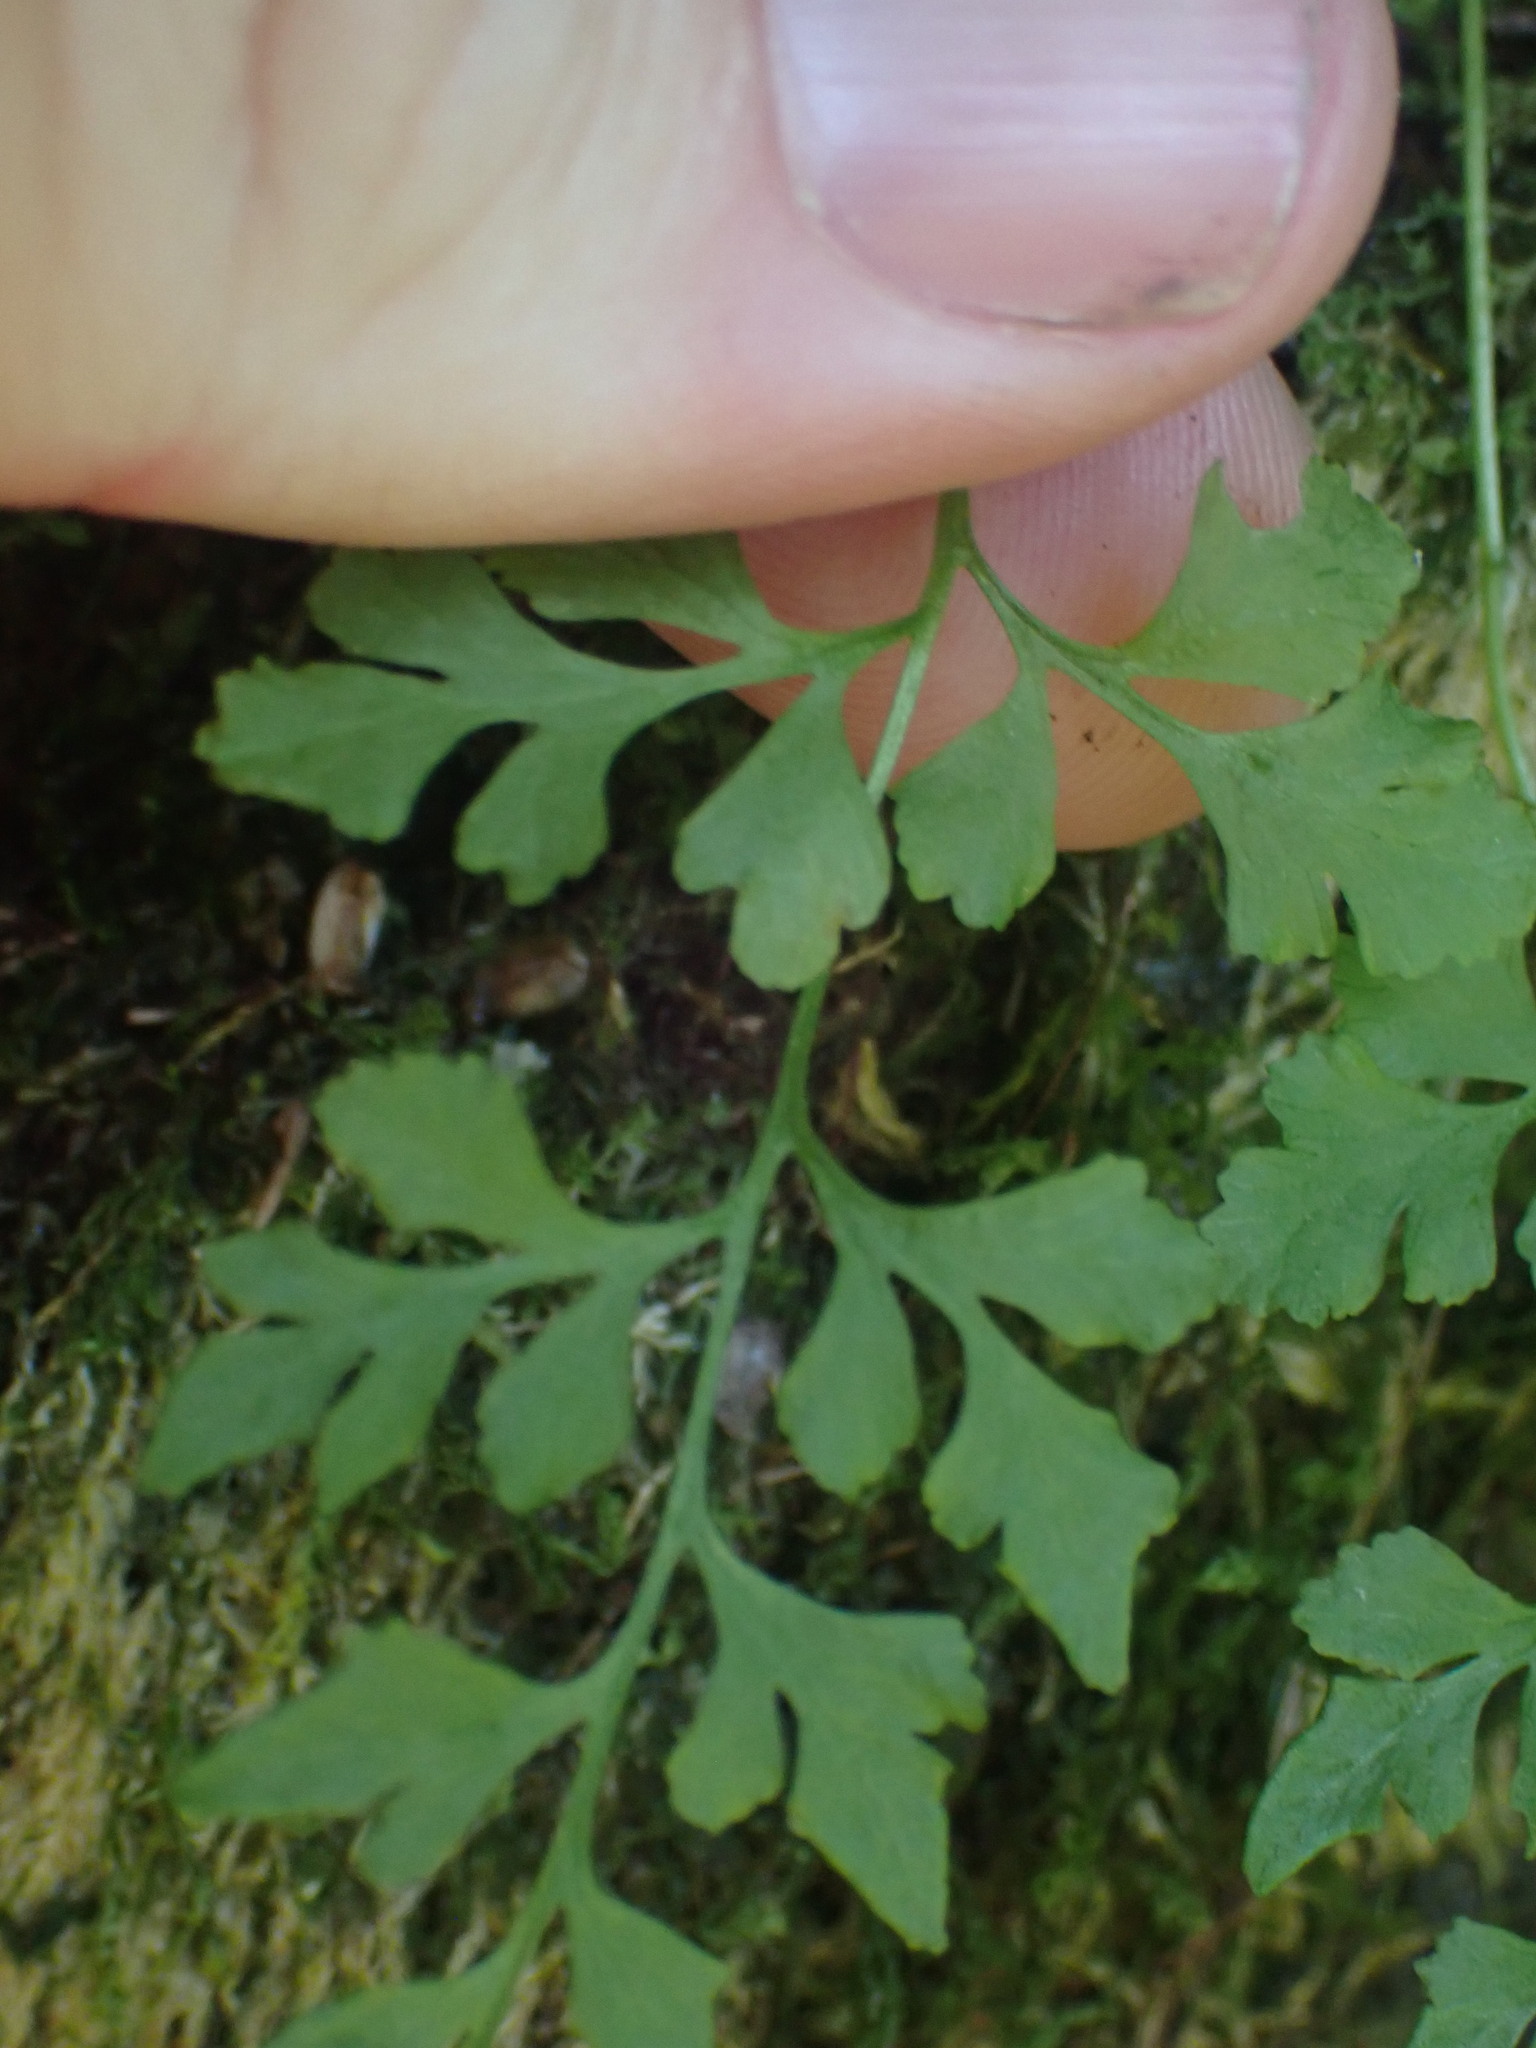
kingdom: Plantae
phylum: Tracheophyta
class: Polypodiopsida
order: Polypodiales
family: Pteridaceae
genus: Cryptogramma
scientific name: Cryptogramma stelleri
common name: Cliff-brake
